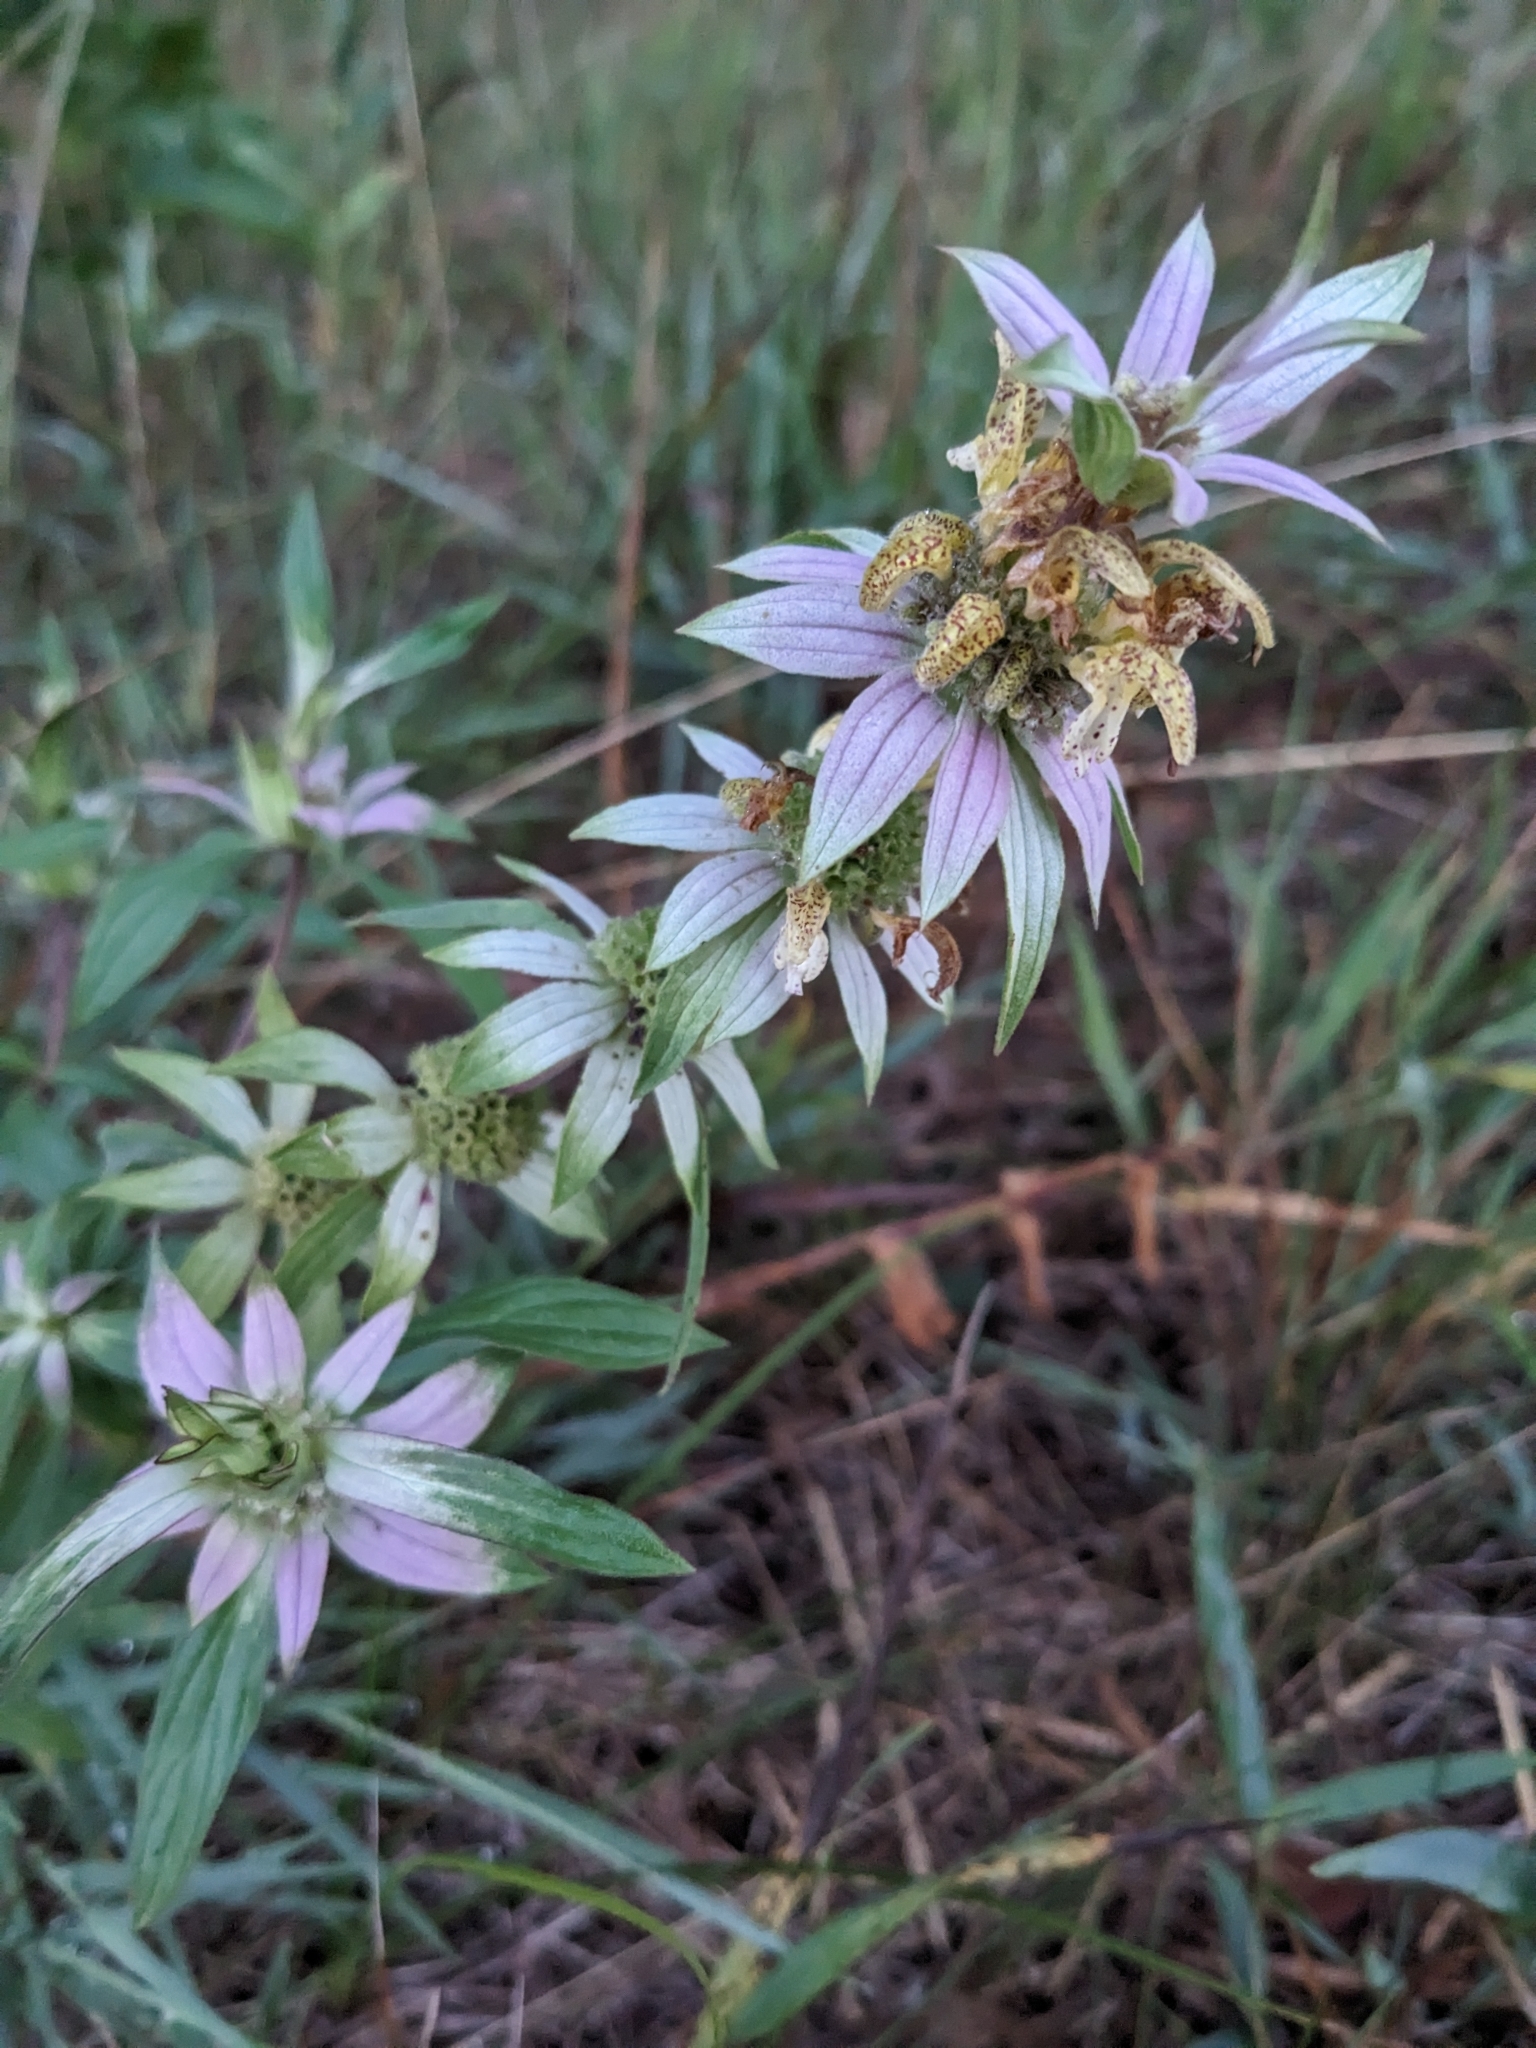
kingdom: Plantae
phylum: Tracheophyta
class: Magnoliopsida
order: Lamiales
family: Lamiaceae
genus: Monarda
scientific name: Monarda punctata
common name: Dotted monarda
